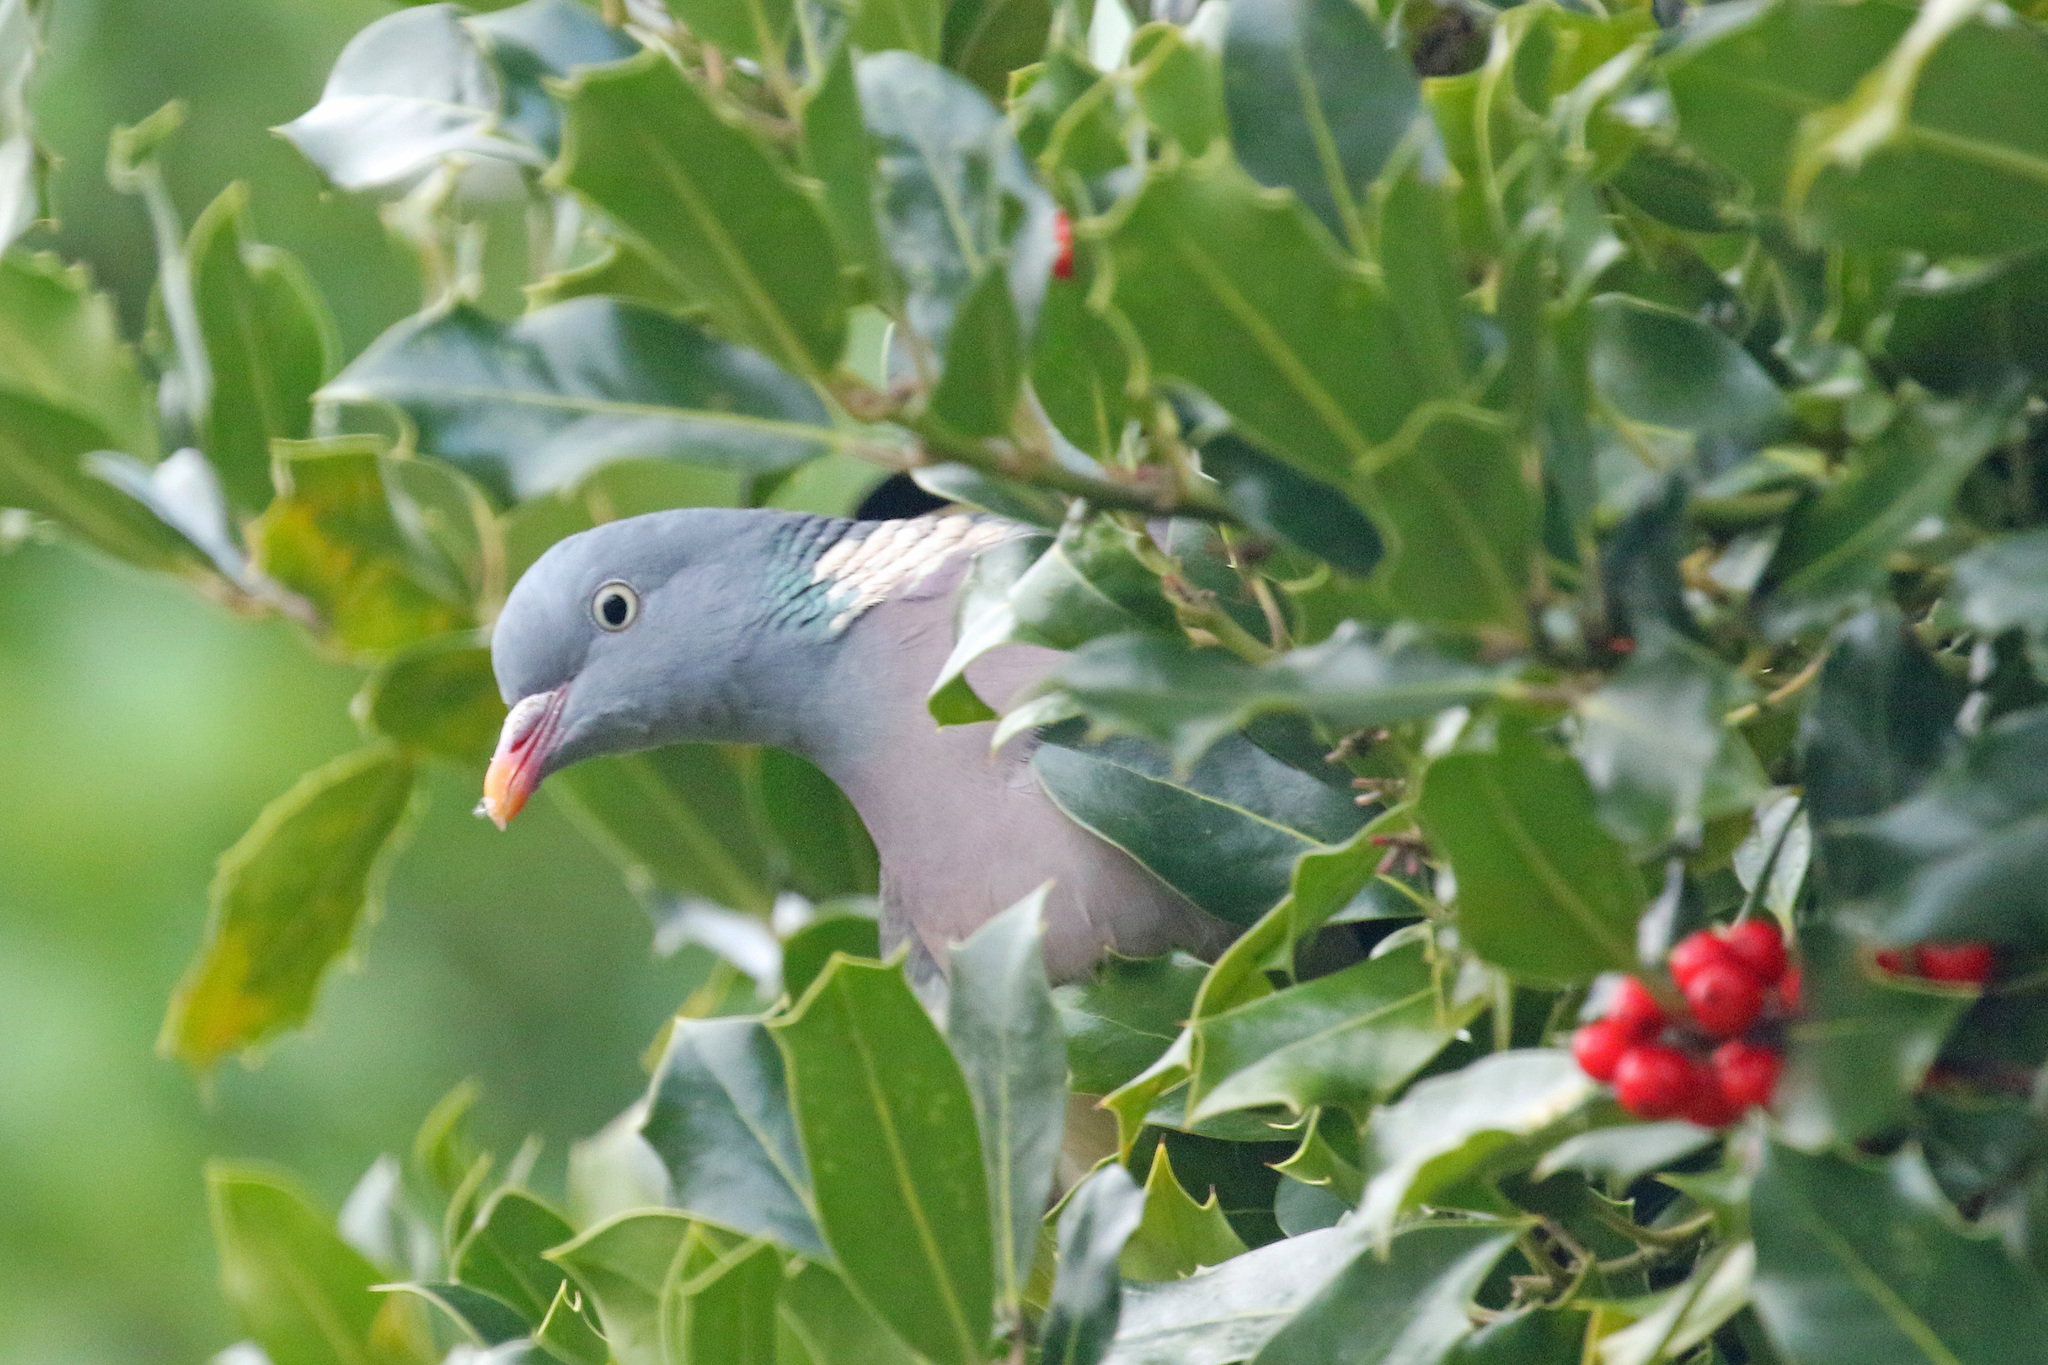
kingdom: Animalia
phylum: Chordata
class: Aves
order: Columbiformes
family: Columbidae
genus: Columba
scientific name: Columba palumbus
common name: Common wood pigeon
